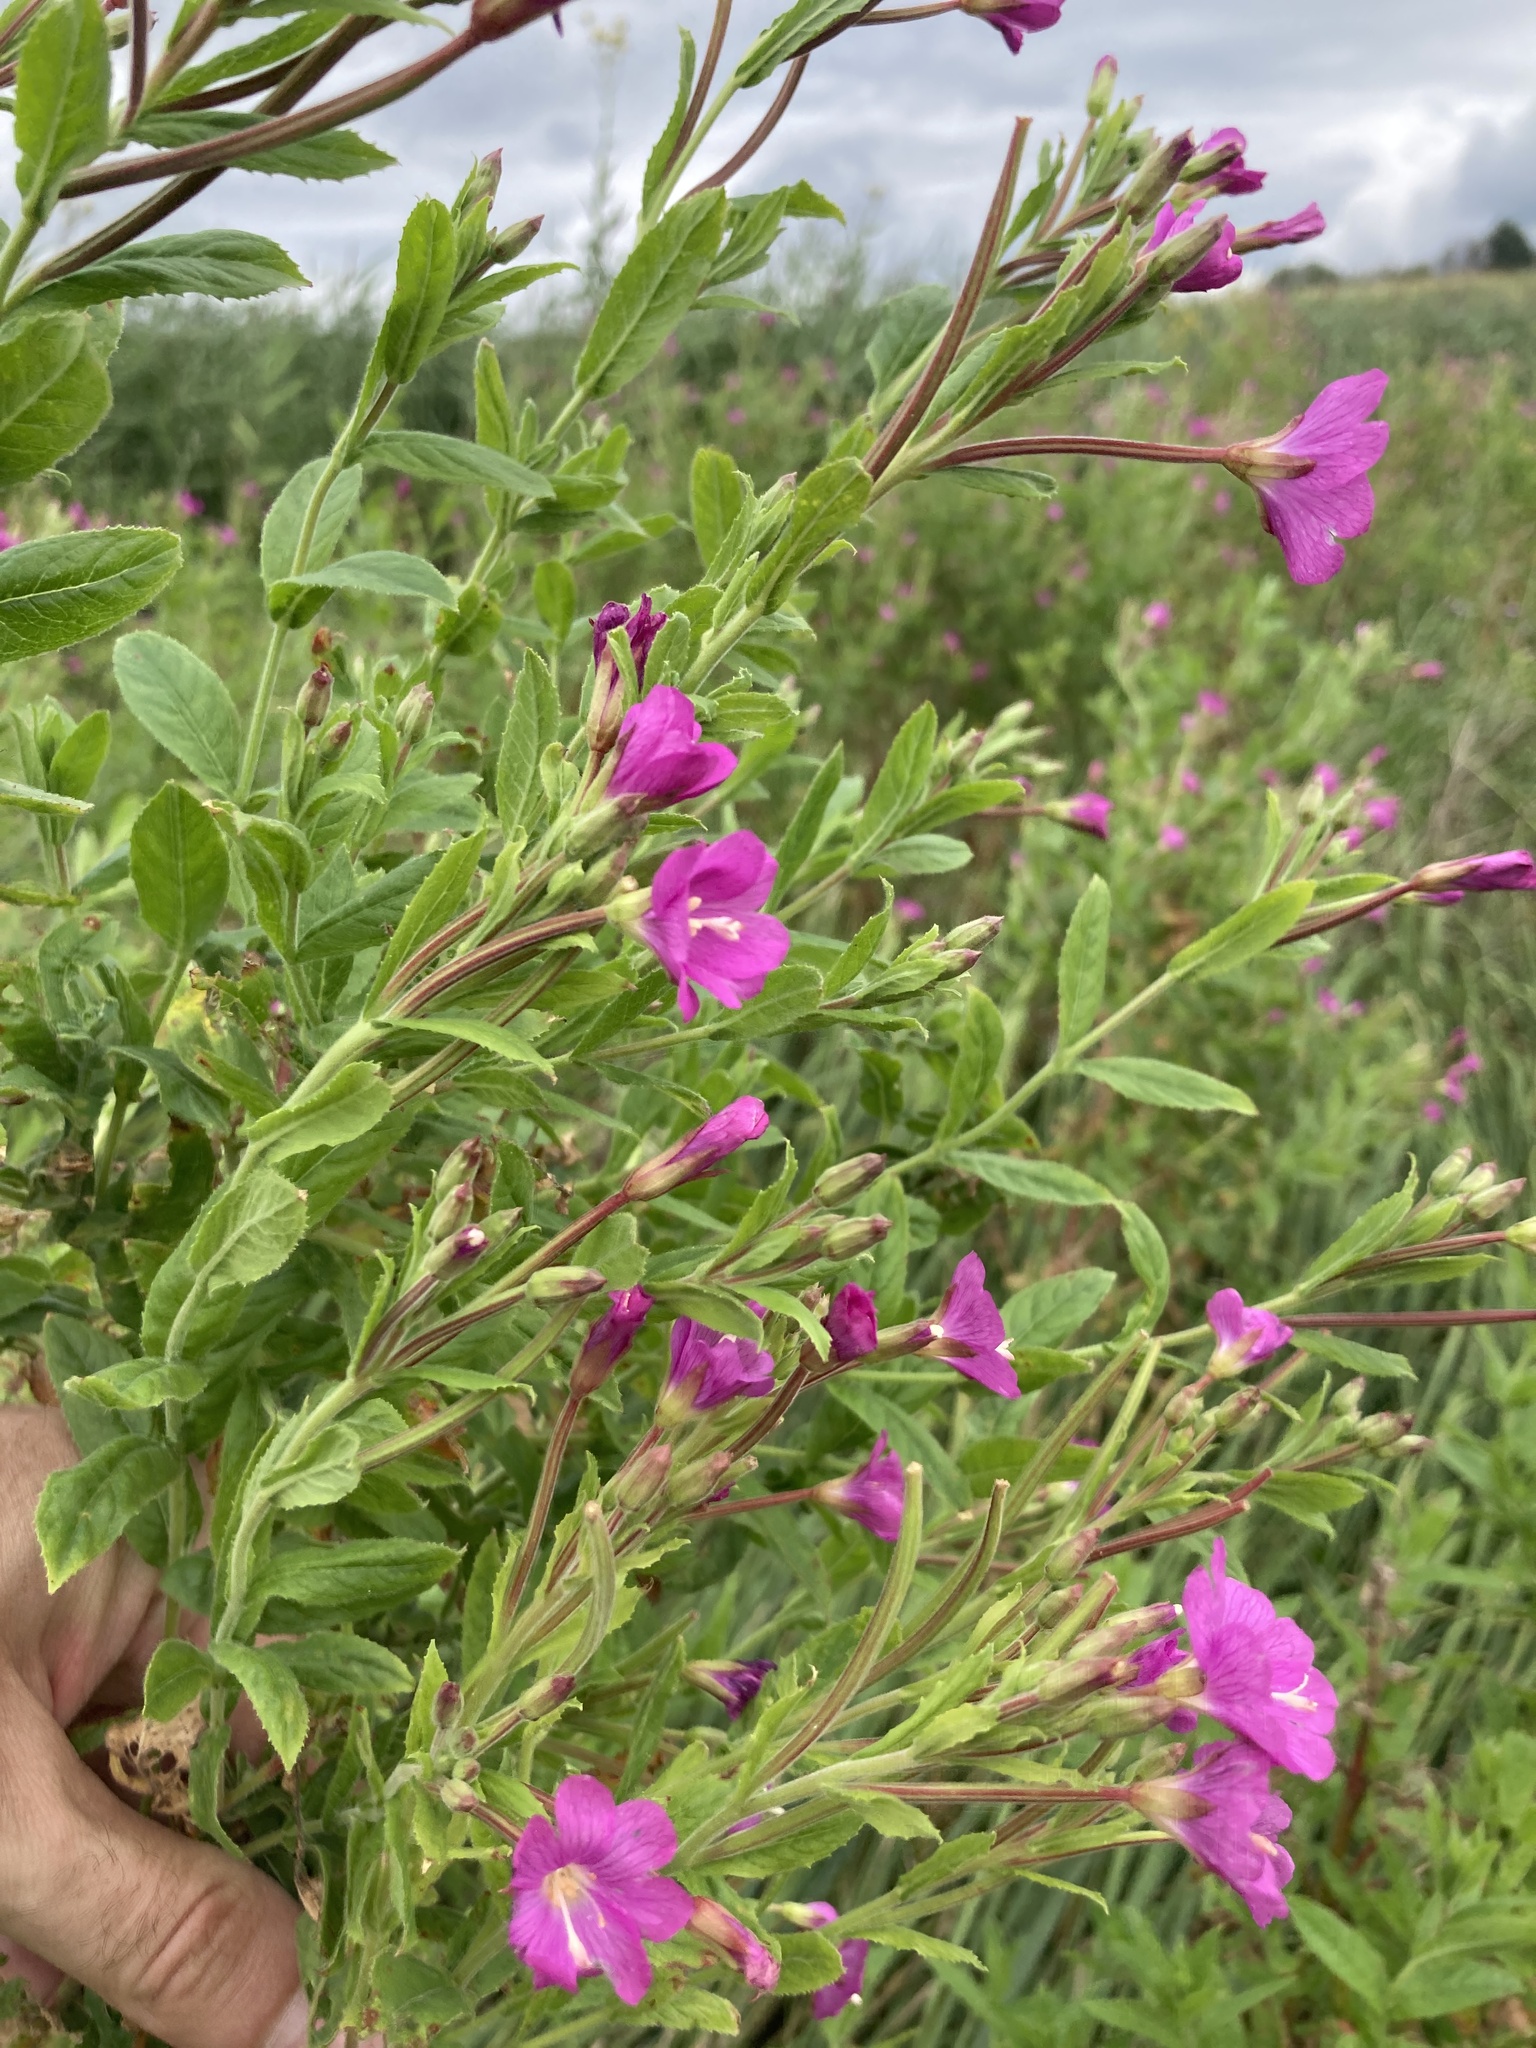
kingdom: Plantae
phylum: Tracheophyta
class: Magnoliopsida
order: Myrtales
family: Onagraceae
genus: Epilobium
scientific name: Epilobium hirsutum
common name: Great willowherb
